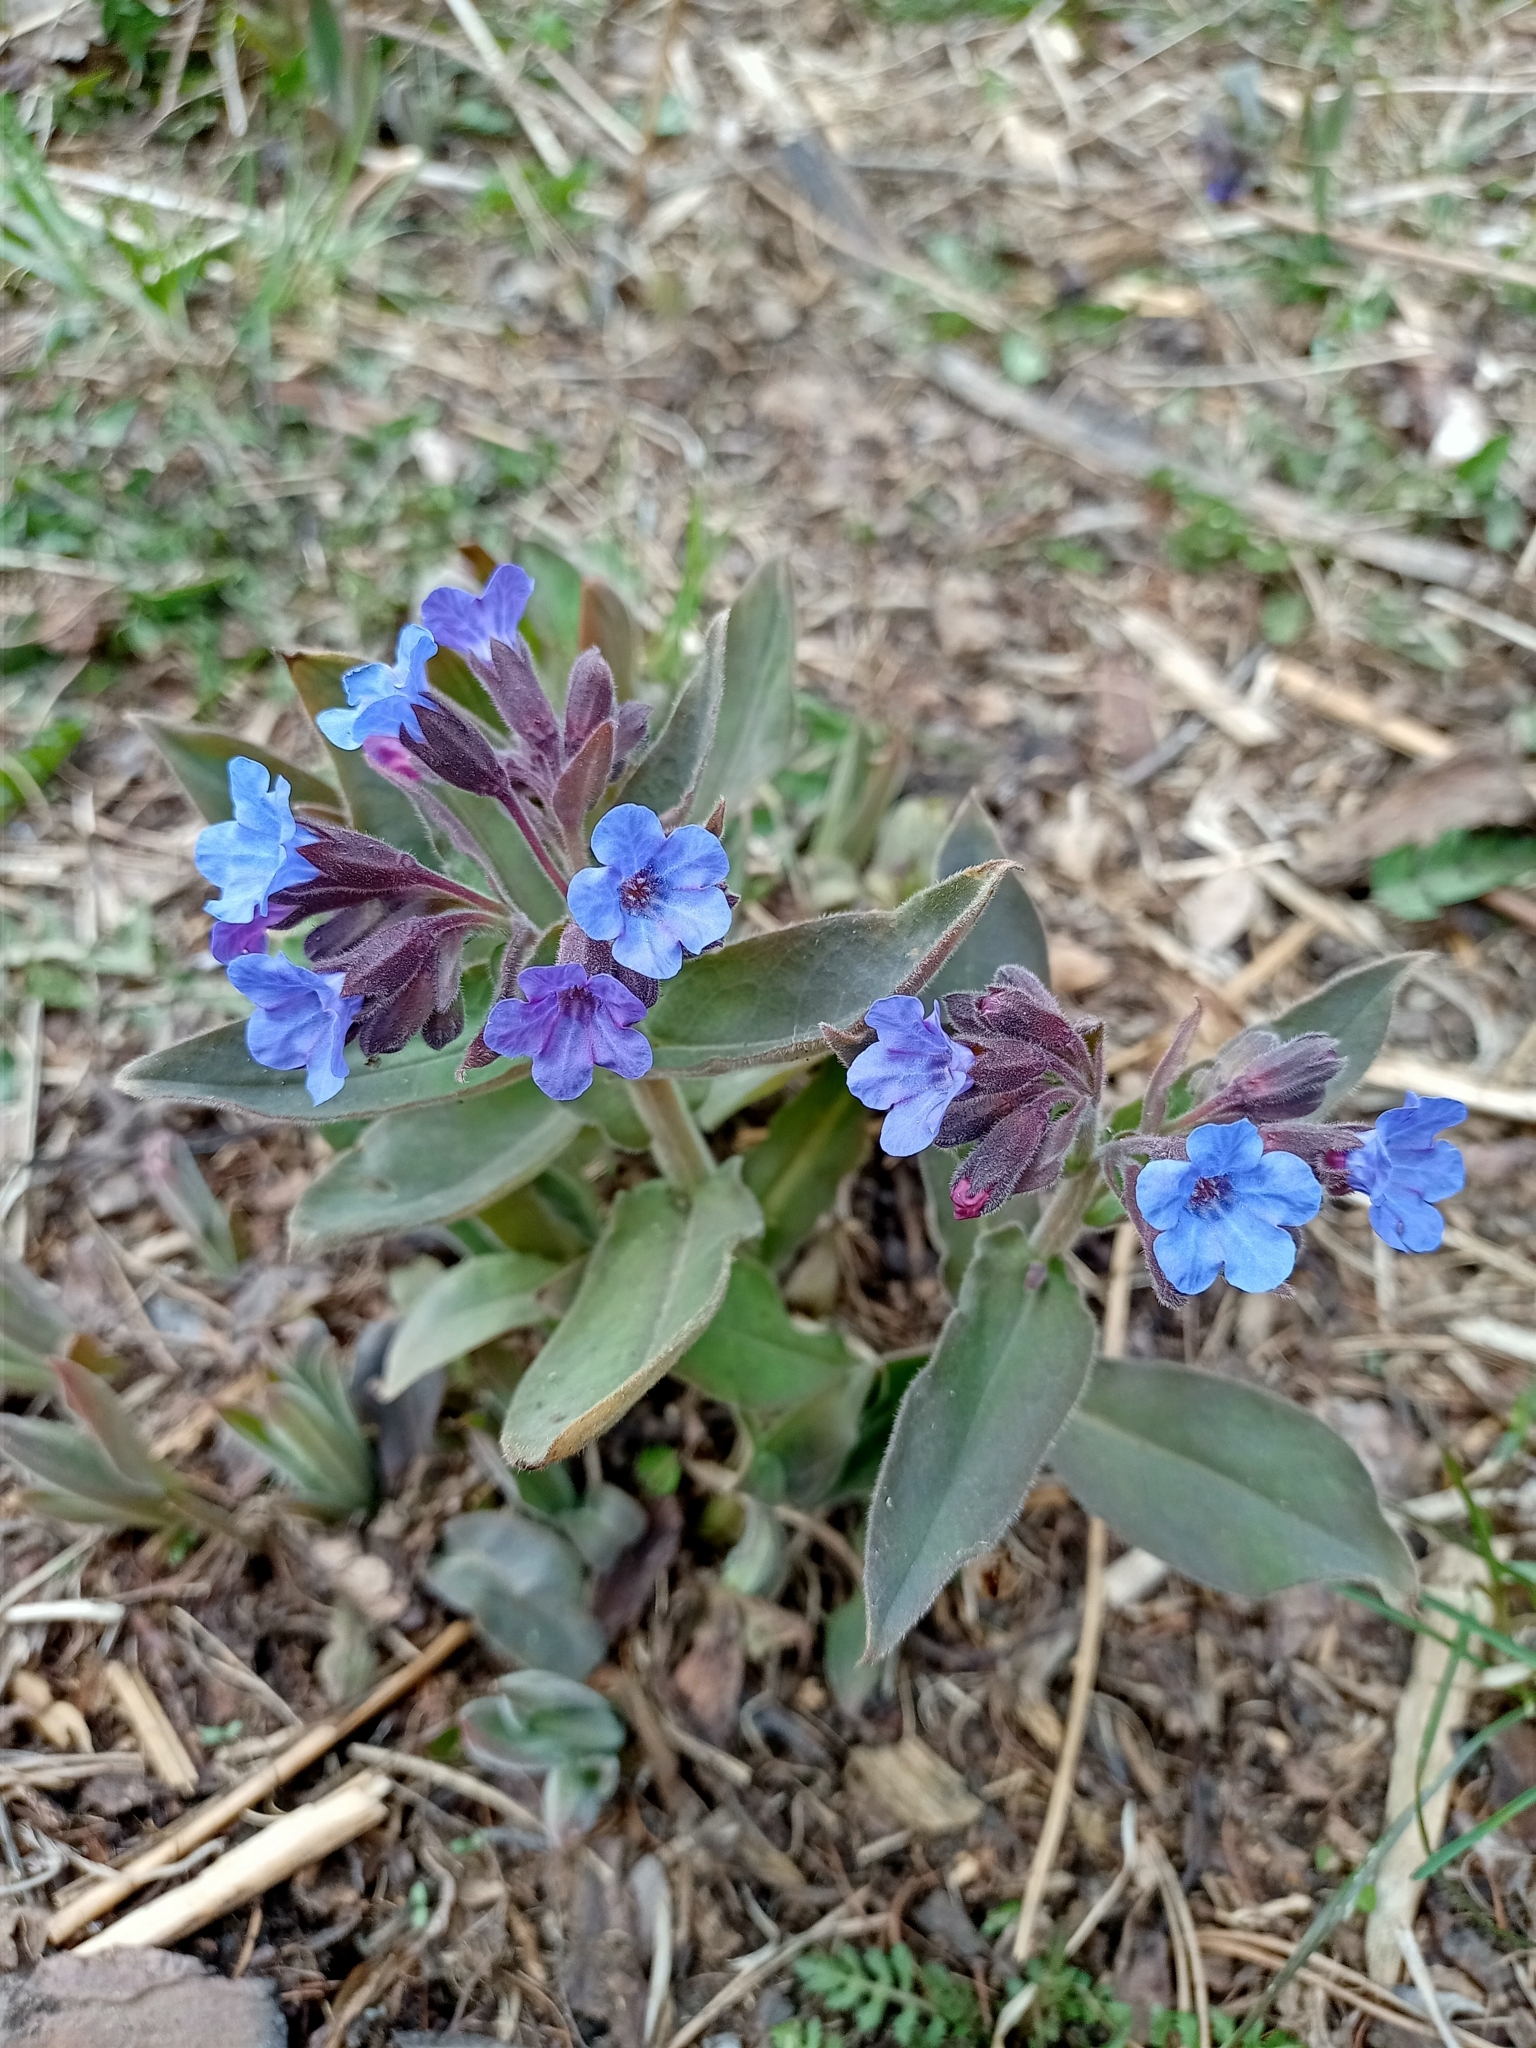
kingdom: Plantae
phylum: Tracheophyta
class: Magnoliopsida
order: Boraginales
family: Boraginaceae
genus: Pulmonaria
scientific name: Pulmonaria mollis
